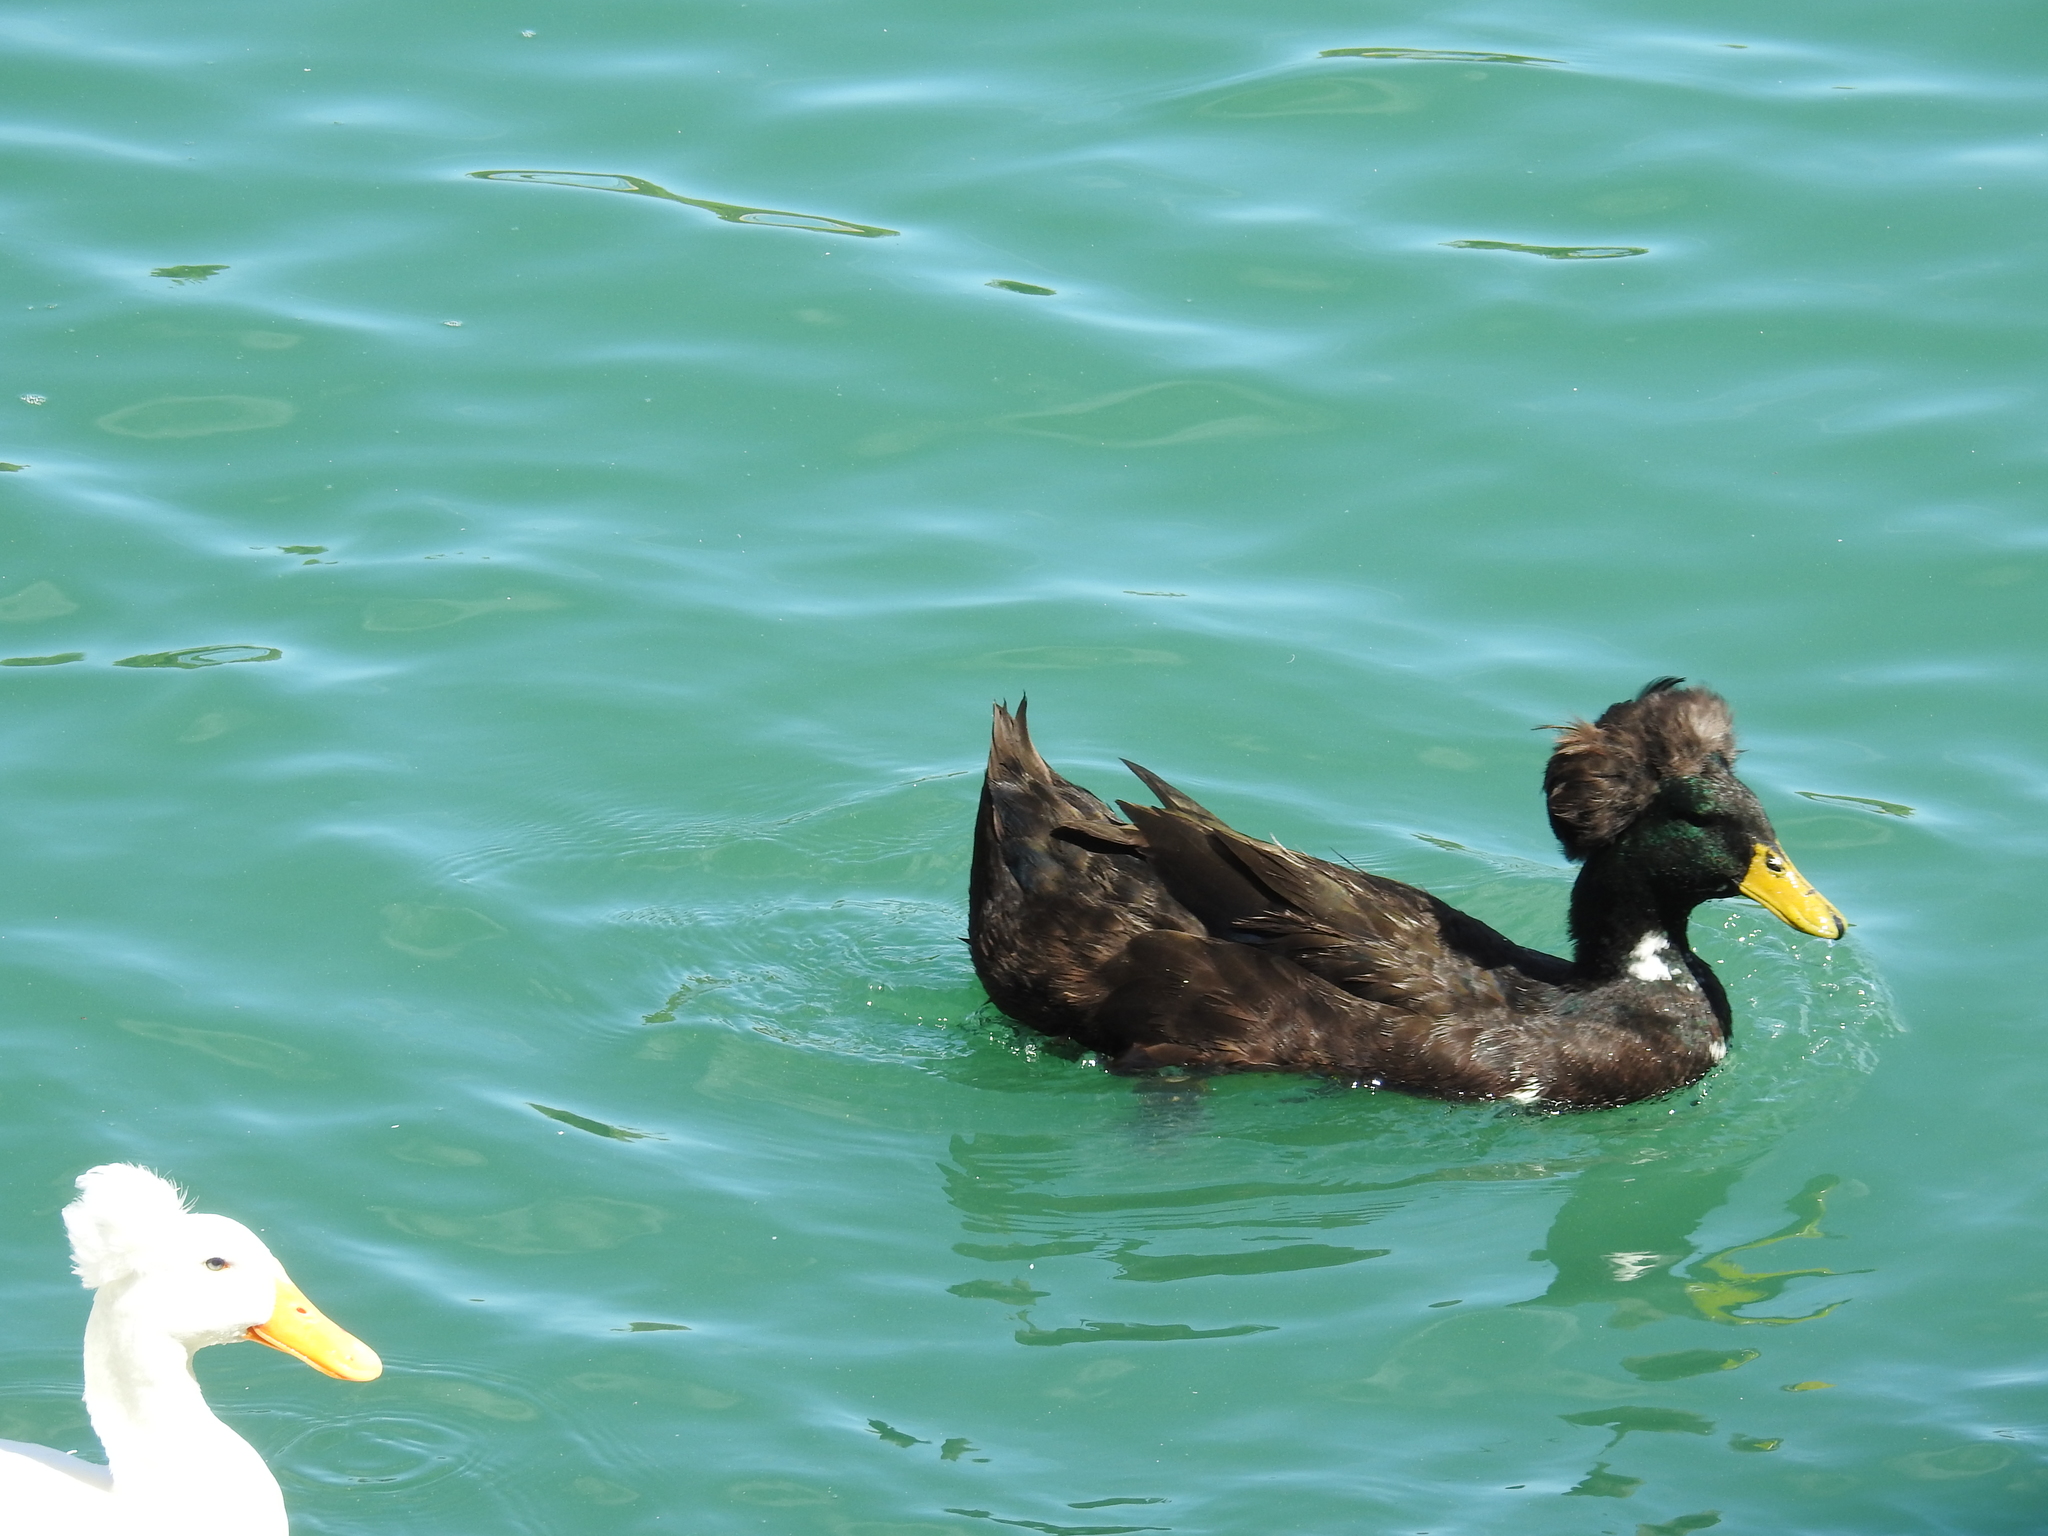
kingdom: Animalia
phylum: Chordata
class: Aves
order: Anseriformes
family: Anatidae
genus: Anas
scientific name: Anas platyrhynchos
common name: Mallard
